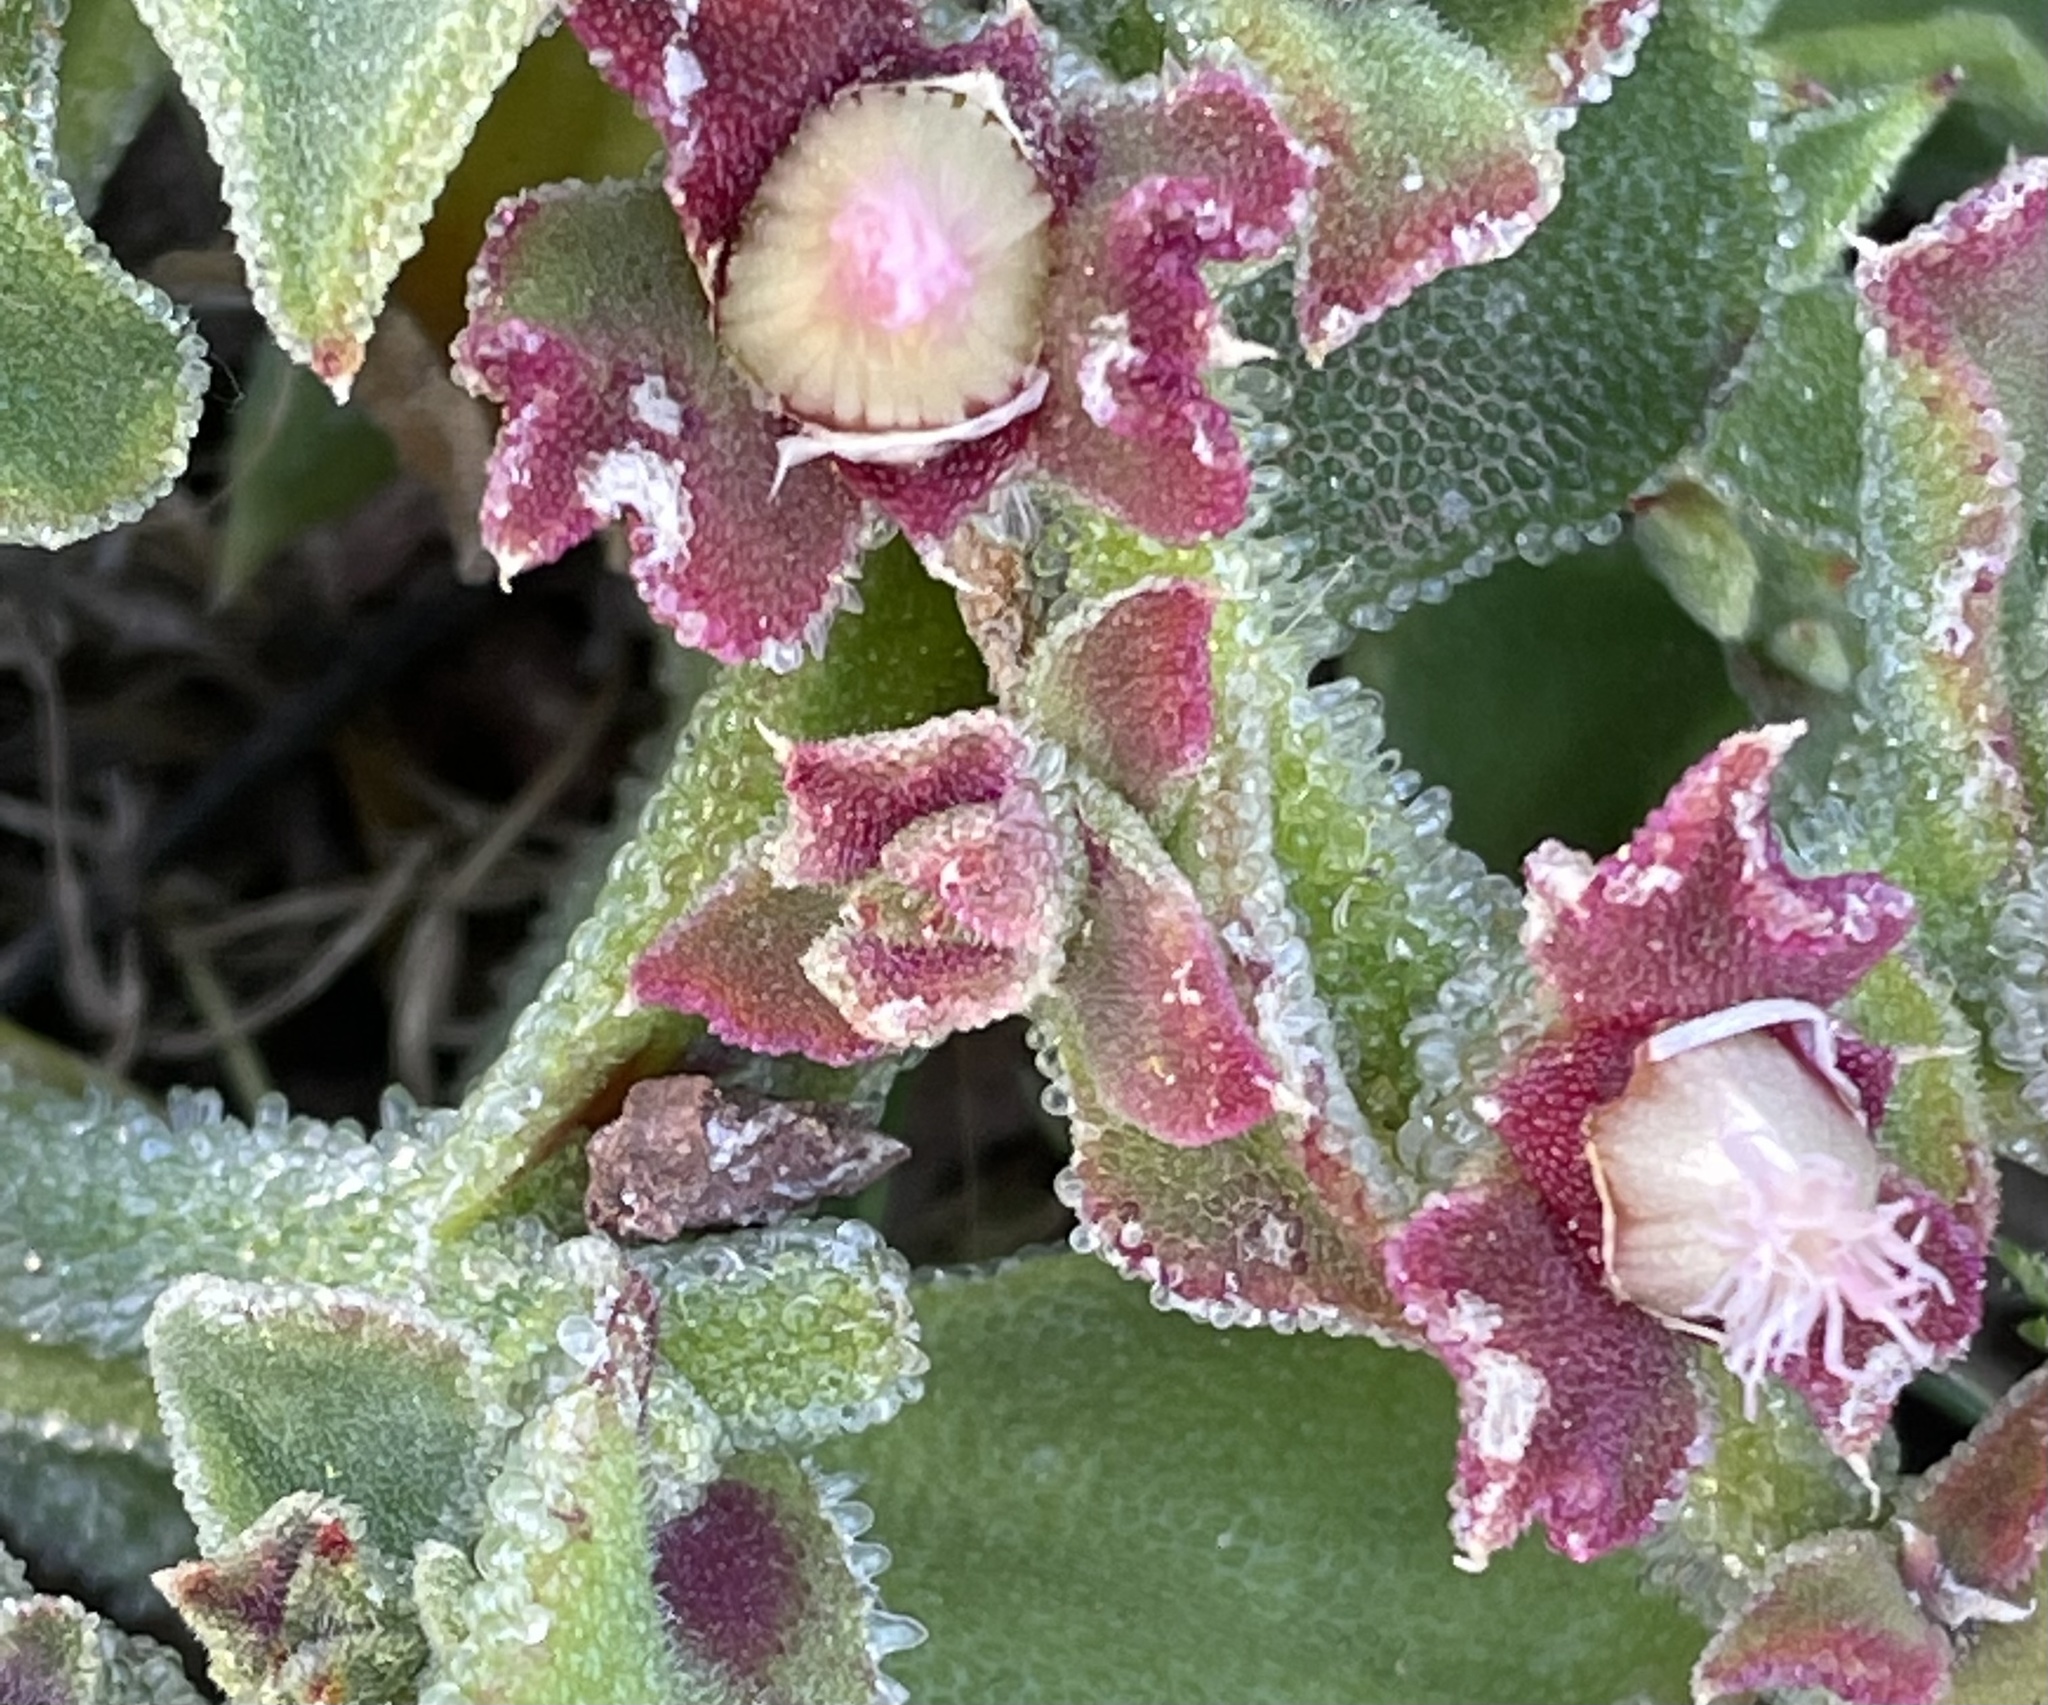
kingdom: Plantae
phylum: Tracheophyta
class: Magnoliopsida
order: Caryophyllales
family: Aizoaceae
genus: Mesembryanthemum
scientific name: Mesembryanthemum crystallinum
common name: Common iceplant
